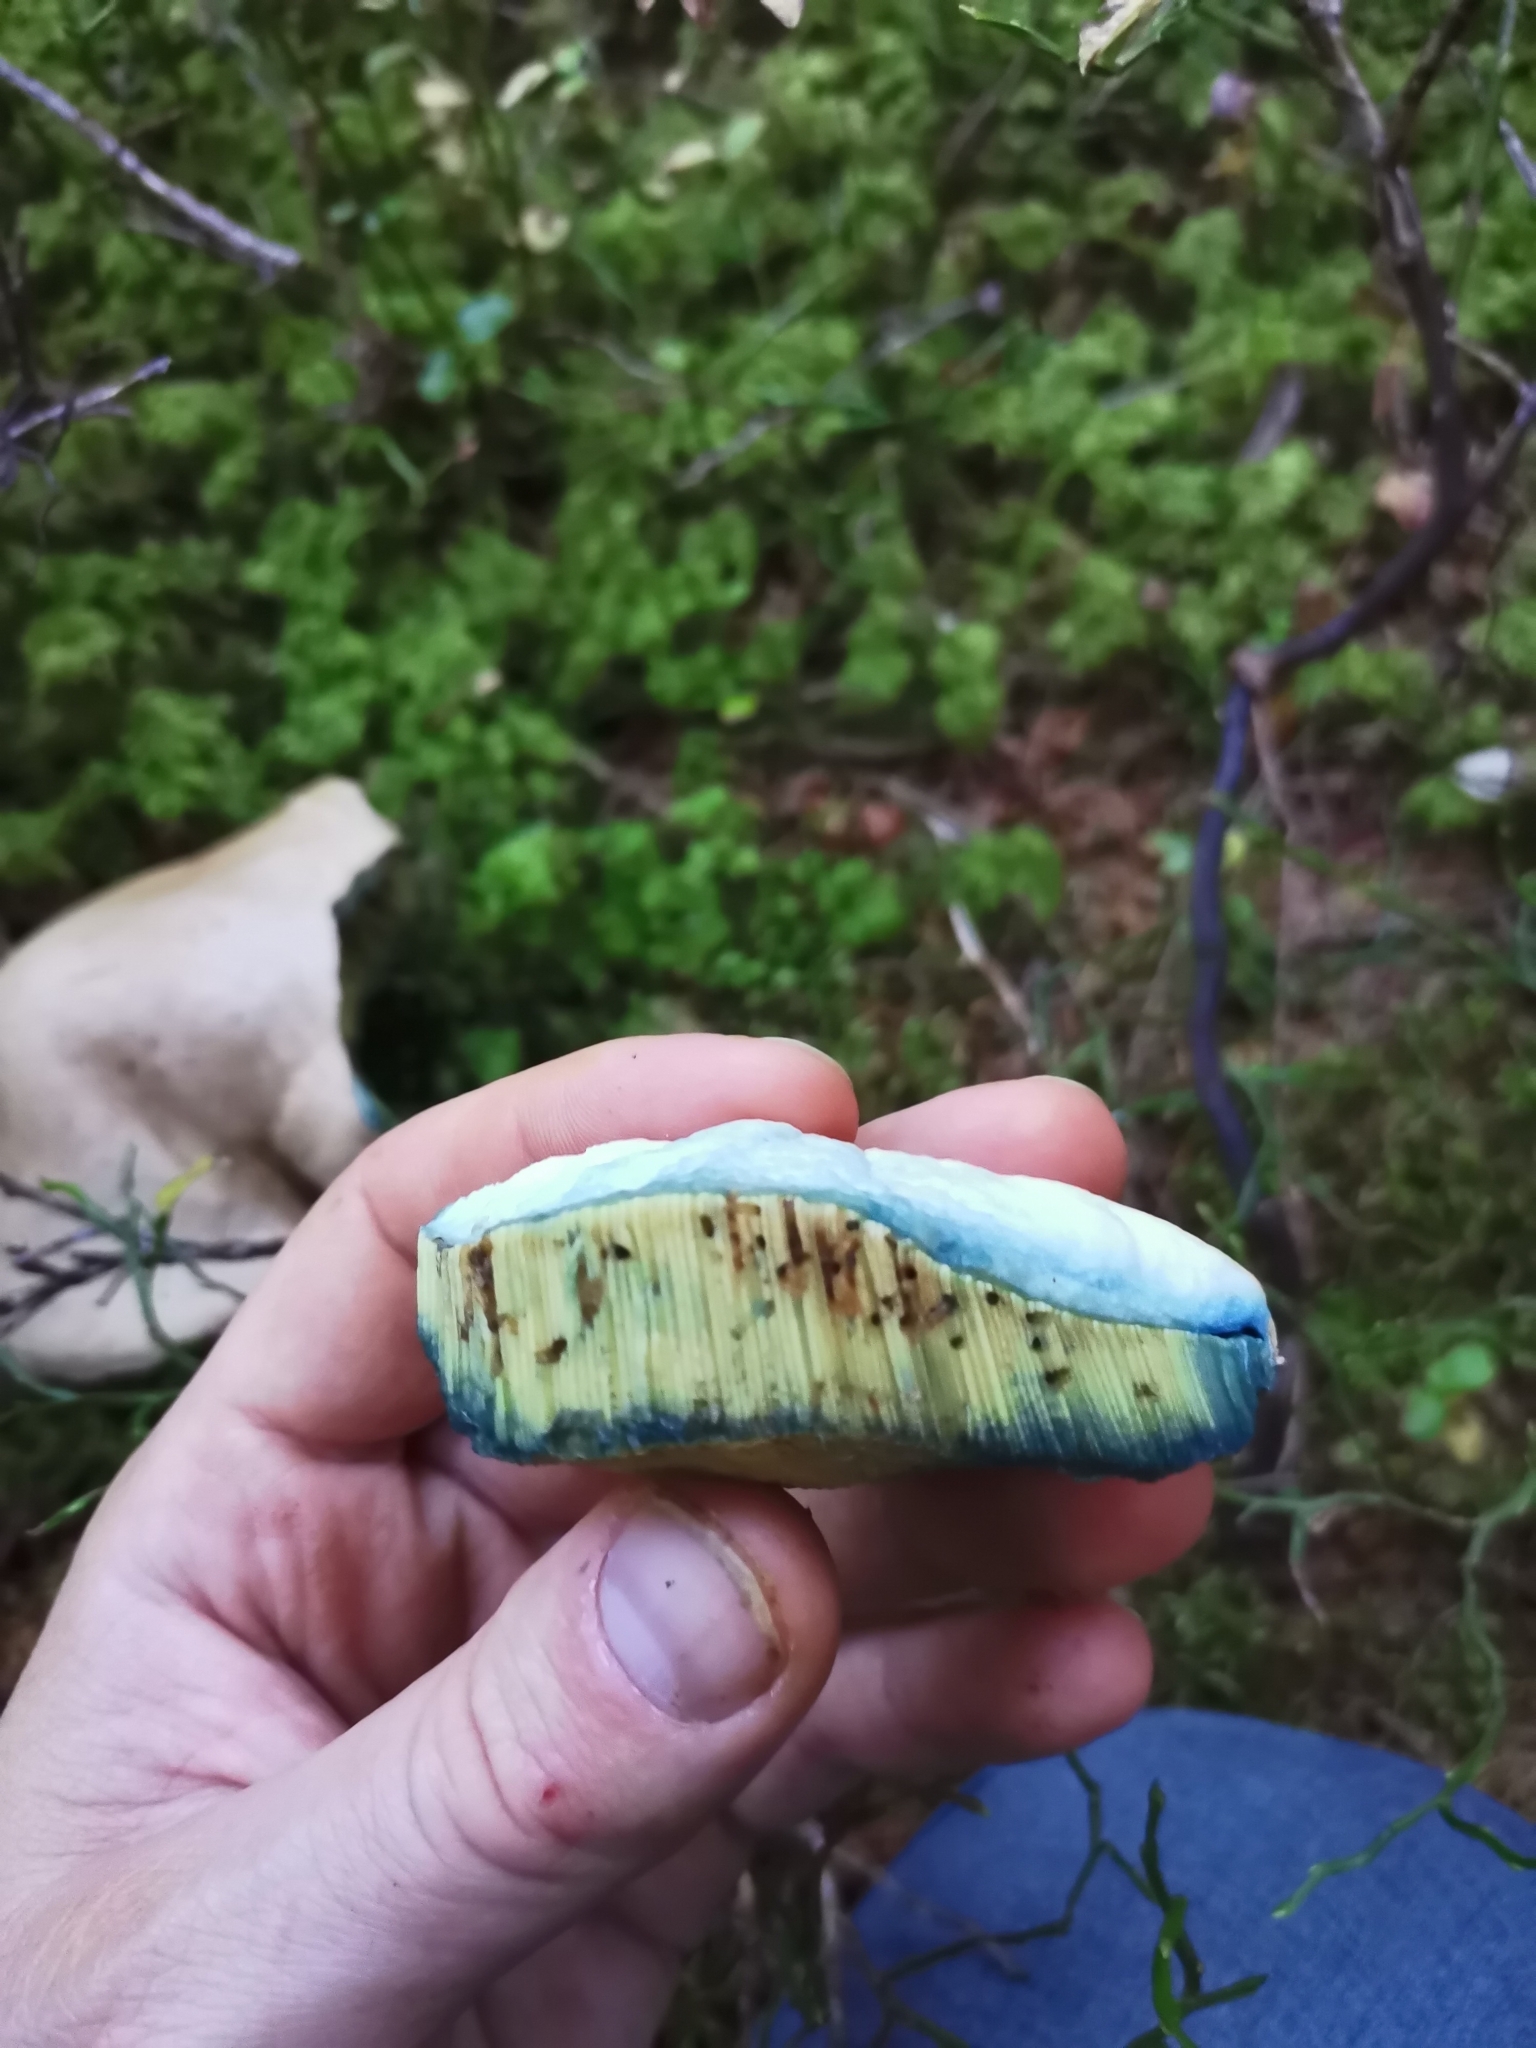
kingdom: Fungi
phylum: Basidiomycota
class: Agaricomycetes
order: Boletales
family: Boletaceae
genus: Caloboletus
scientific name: Caloboletus calopus
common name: Bitter beech bolete
